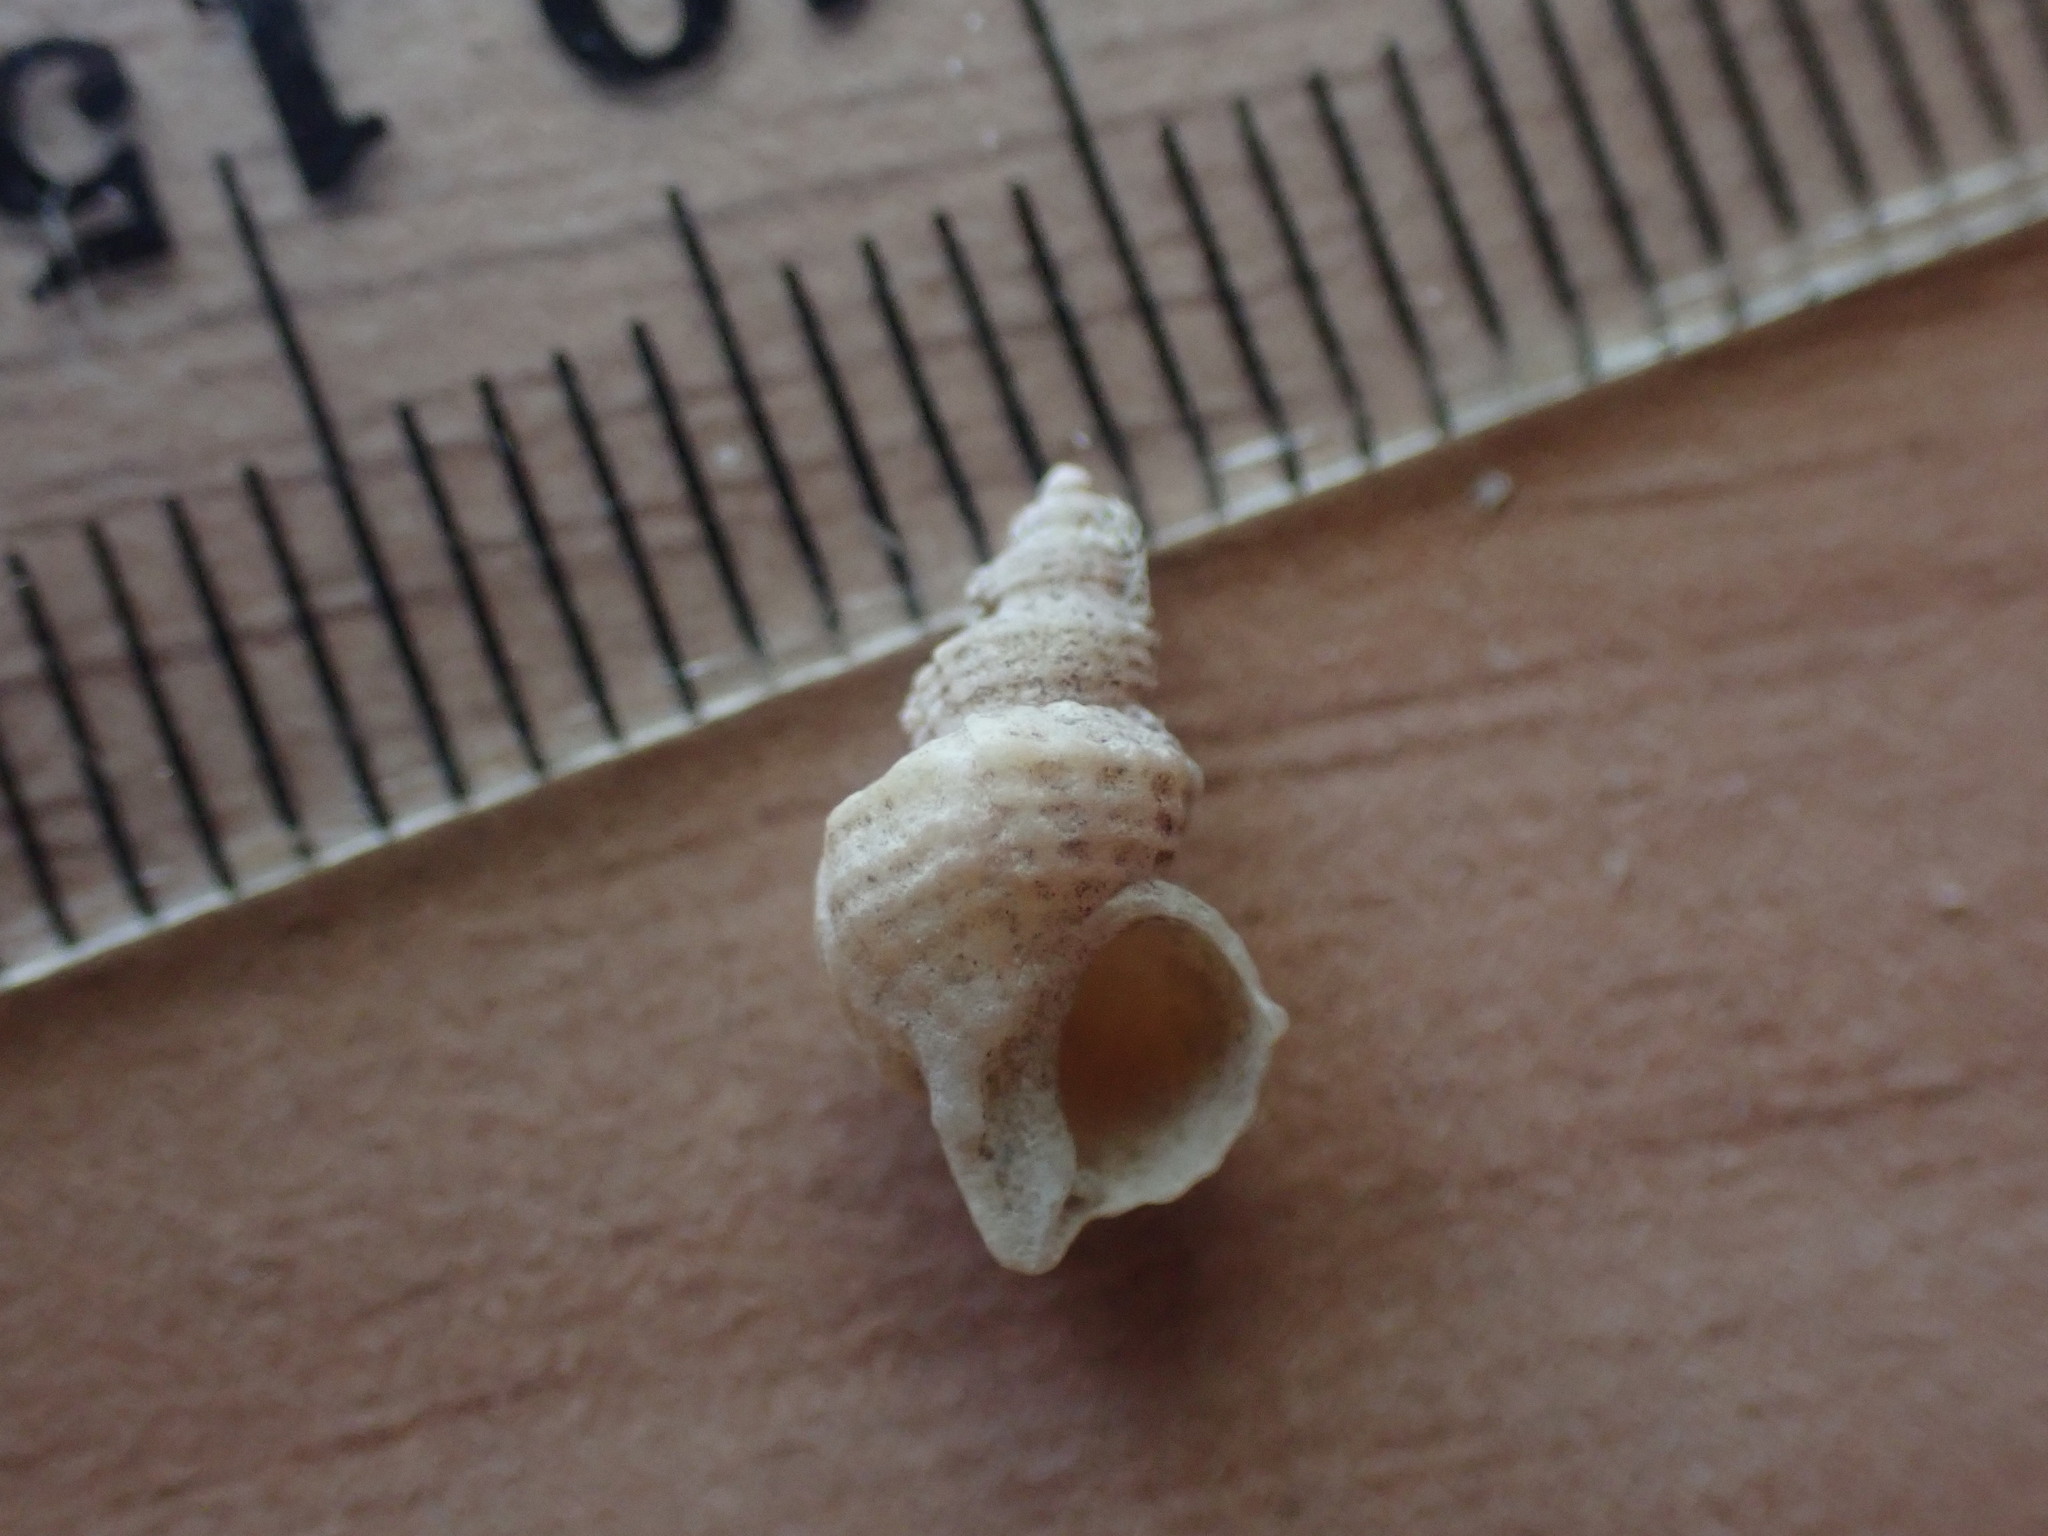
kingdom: Animalia
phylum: Mollusca
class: Gastropoda
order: Littorinimorpha
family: Capulidae
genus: Trichosirius
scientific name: Trichosirius inornatus
